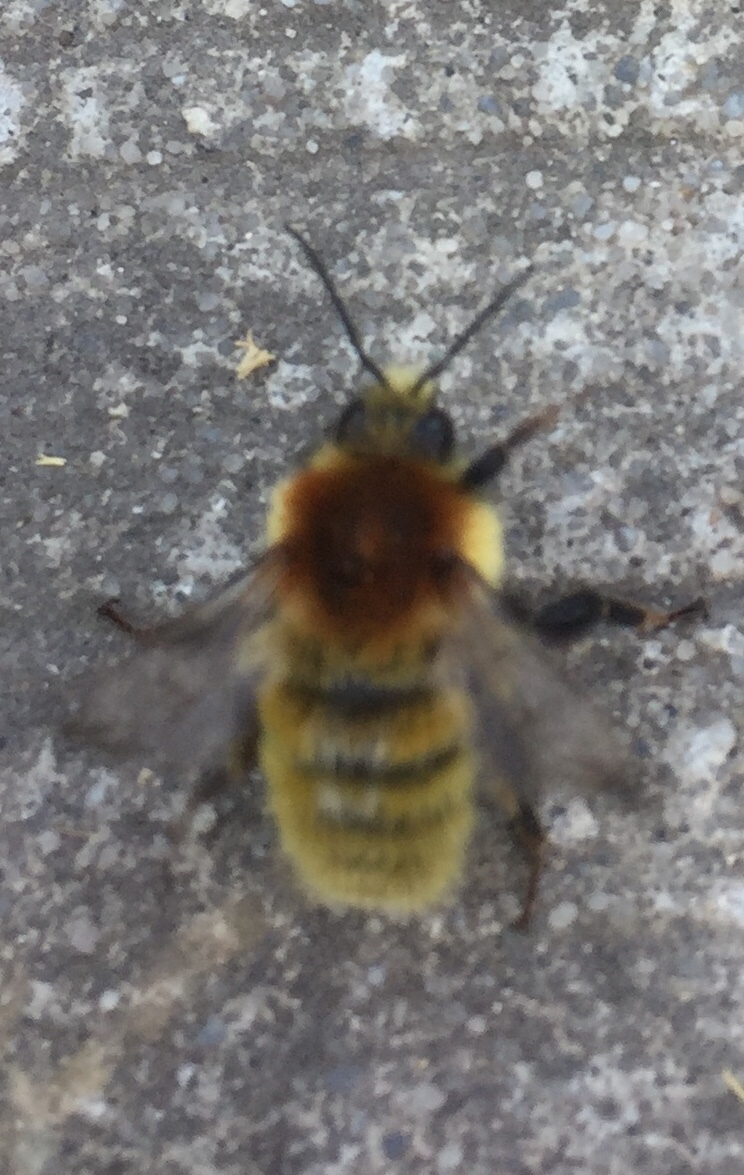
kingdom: Animalia
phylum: Arthropoda
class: Insecta
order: Hymenoptera
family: Apidae
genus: Bombus
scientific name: Bombus muscorum
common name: Moss carder-bee
